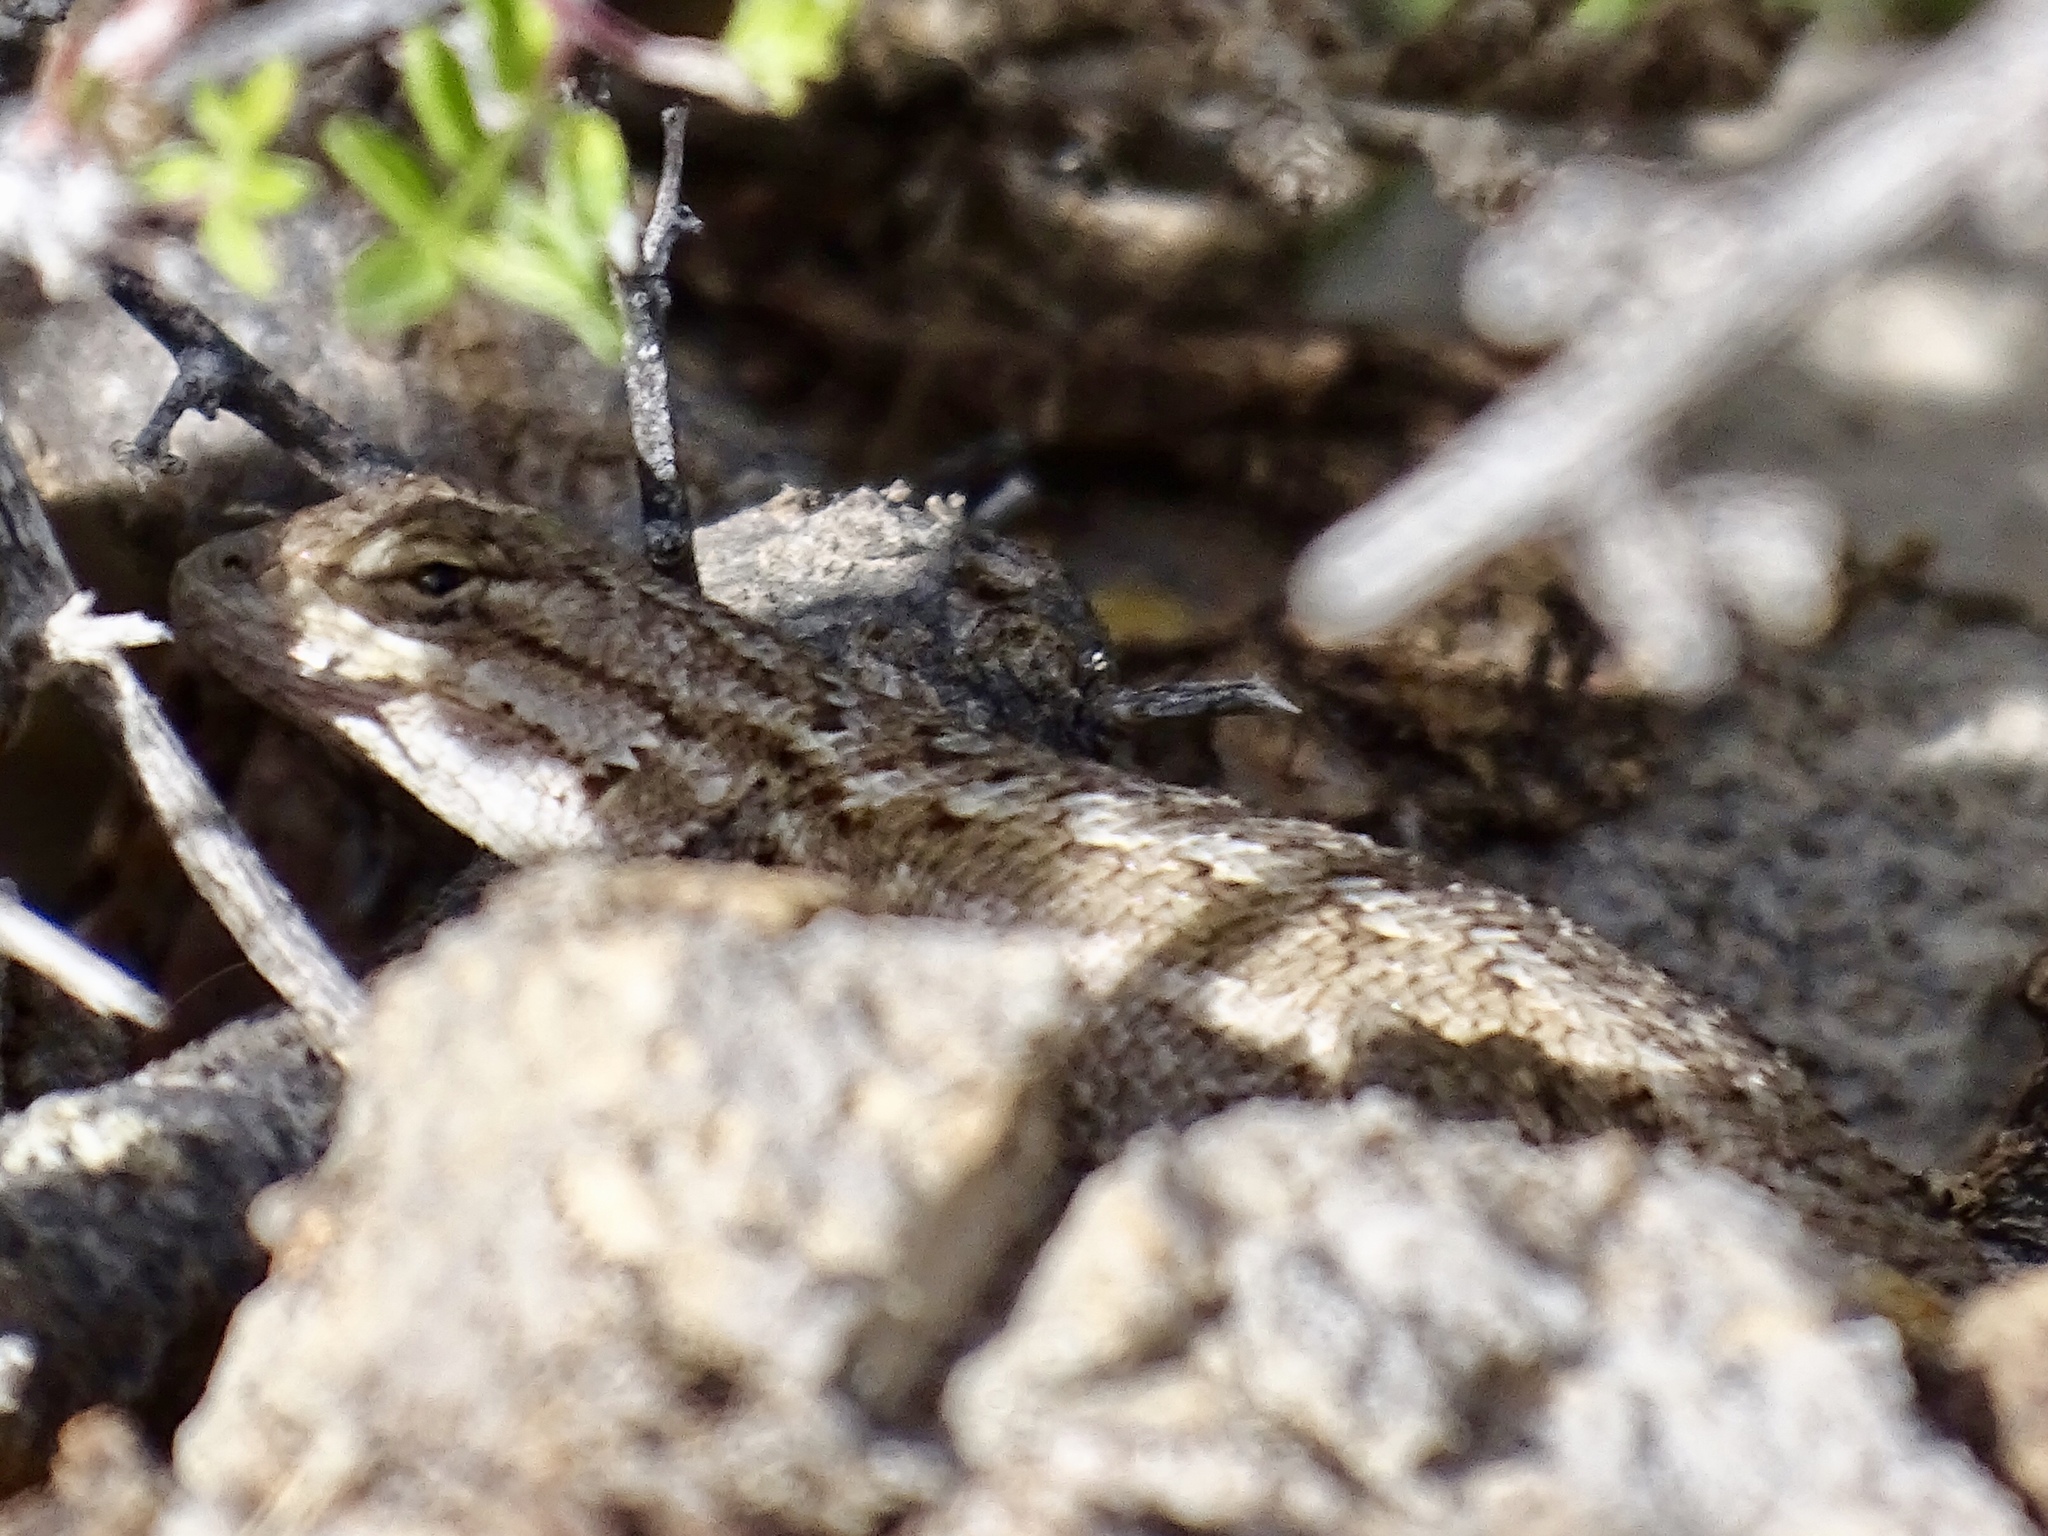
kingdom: Animalia
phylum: Chordata
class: Squamata
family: Phrynosomatidae
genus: Sceloporus
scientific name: Sceloporus cowlesi
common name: White sands prairie lizard
